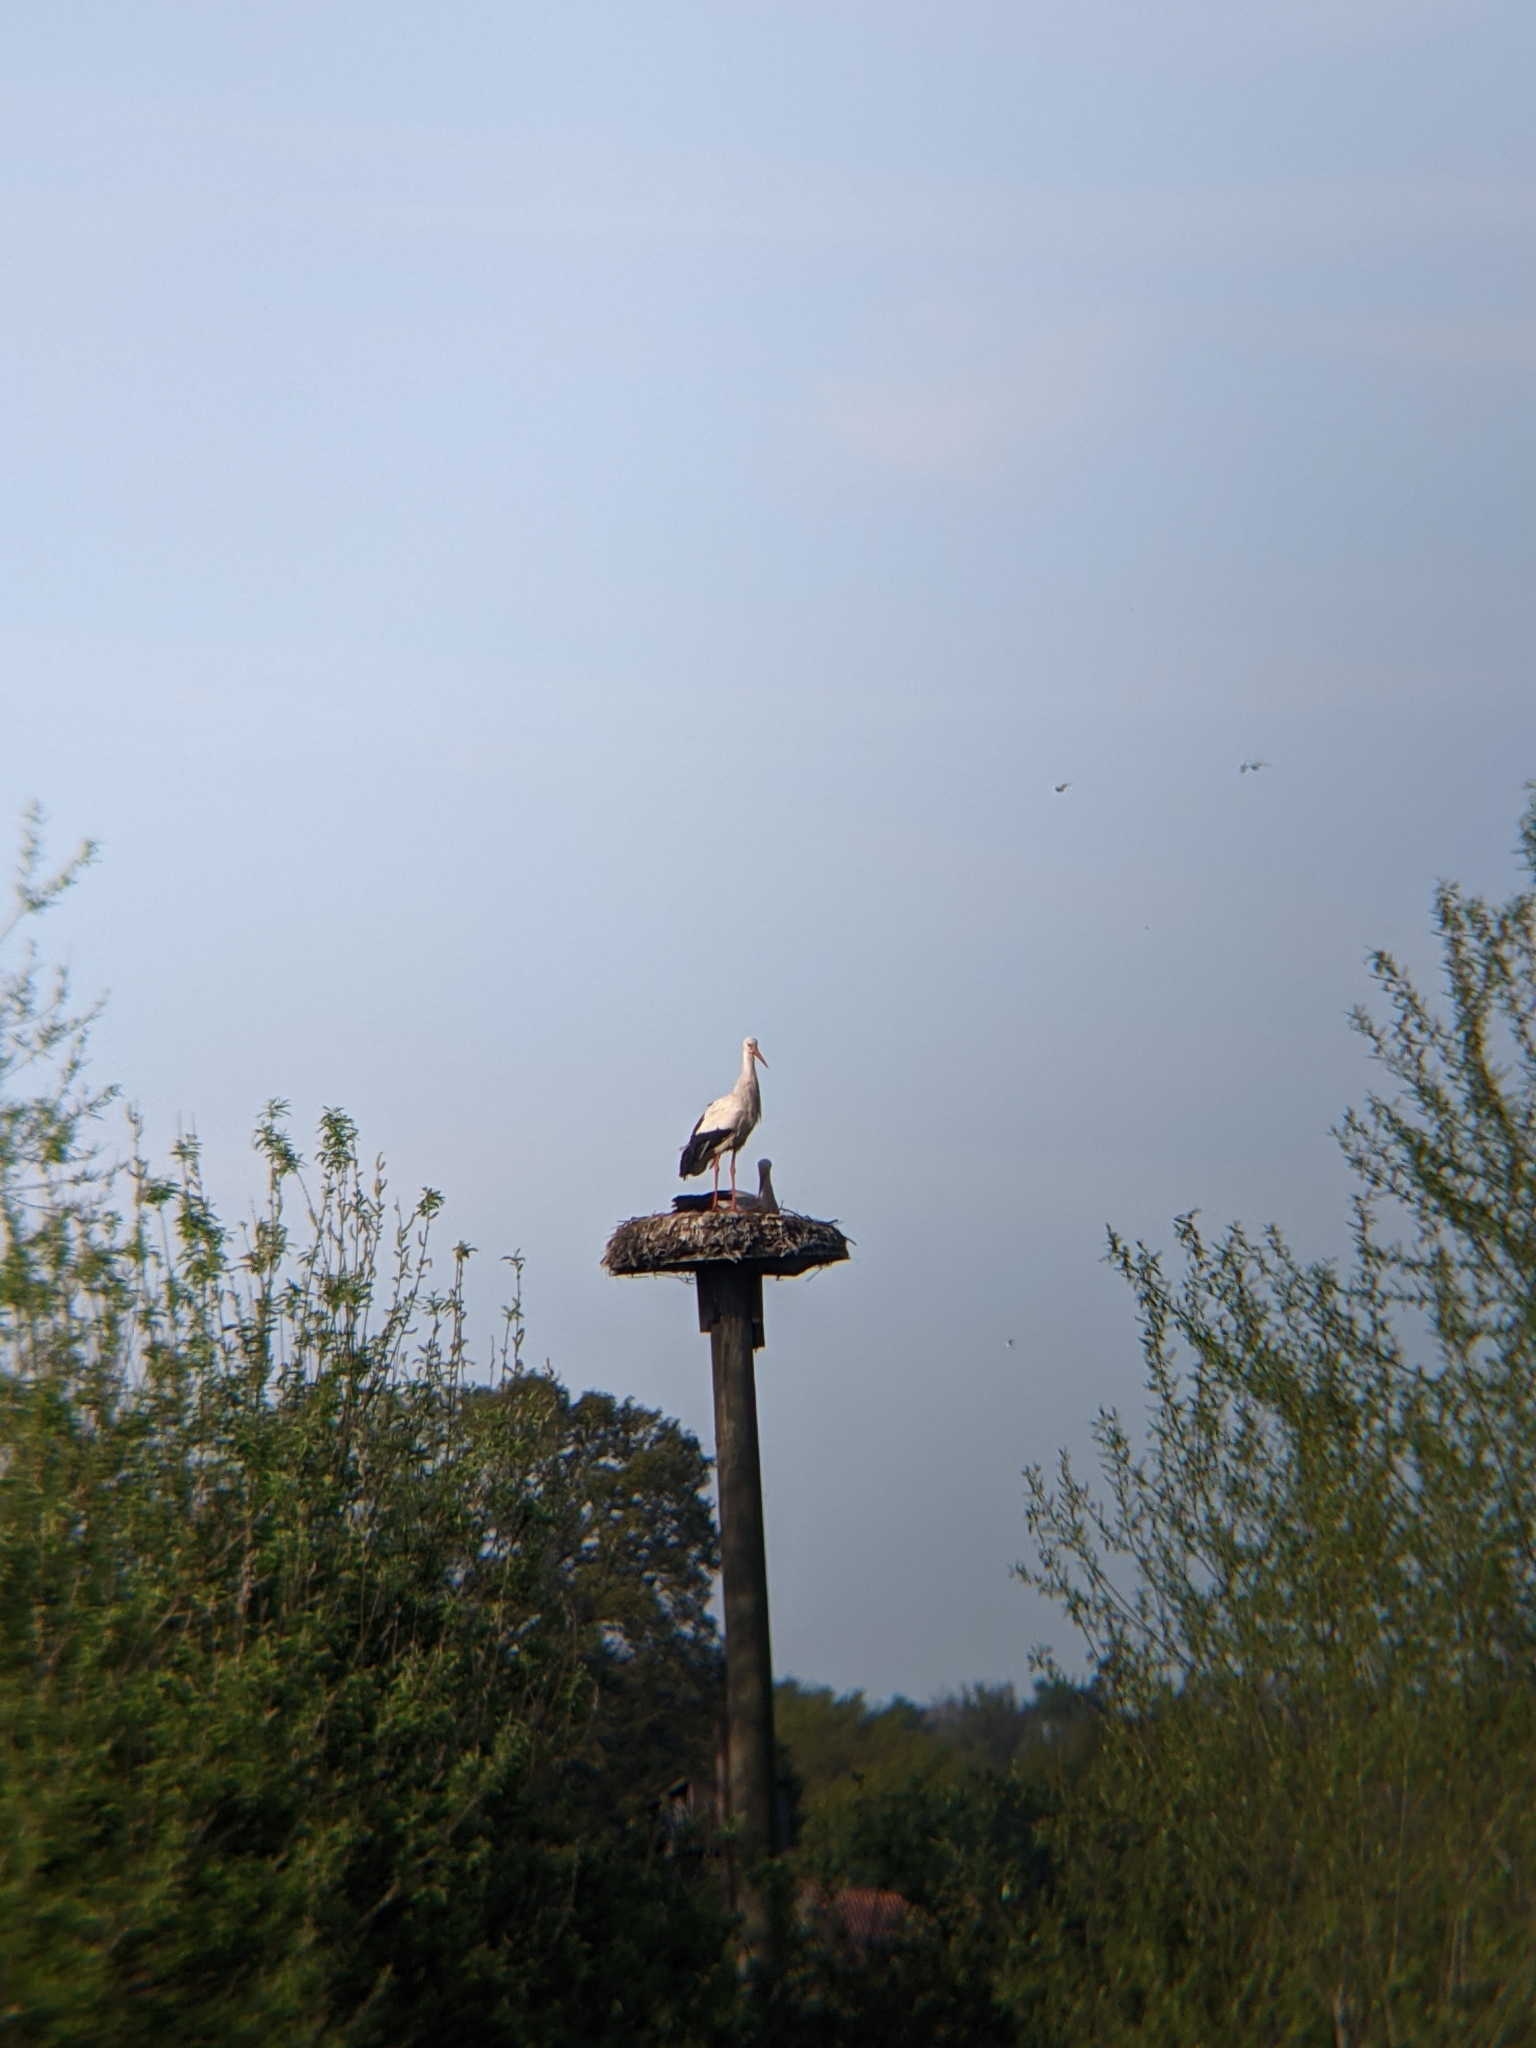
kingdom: Animalia
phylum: Chordata
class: Aves
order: Ciconiiformes
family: Ciconiidae
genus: Ciconia
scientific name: Ciconia ciconia
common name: White stork
